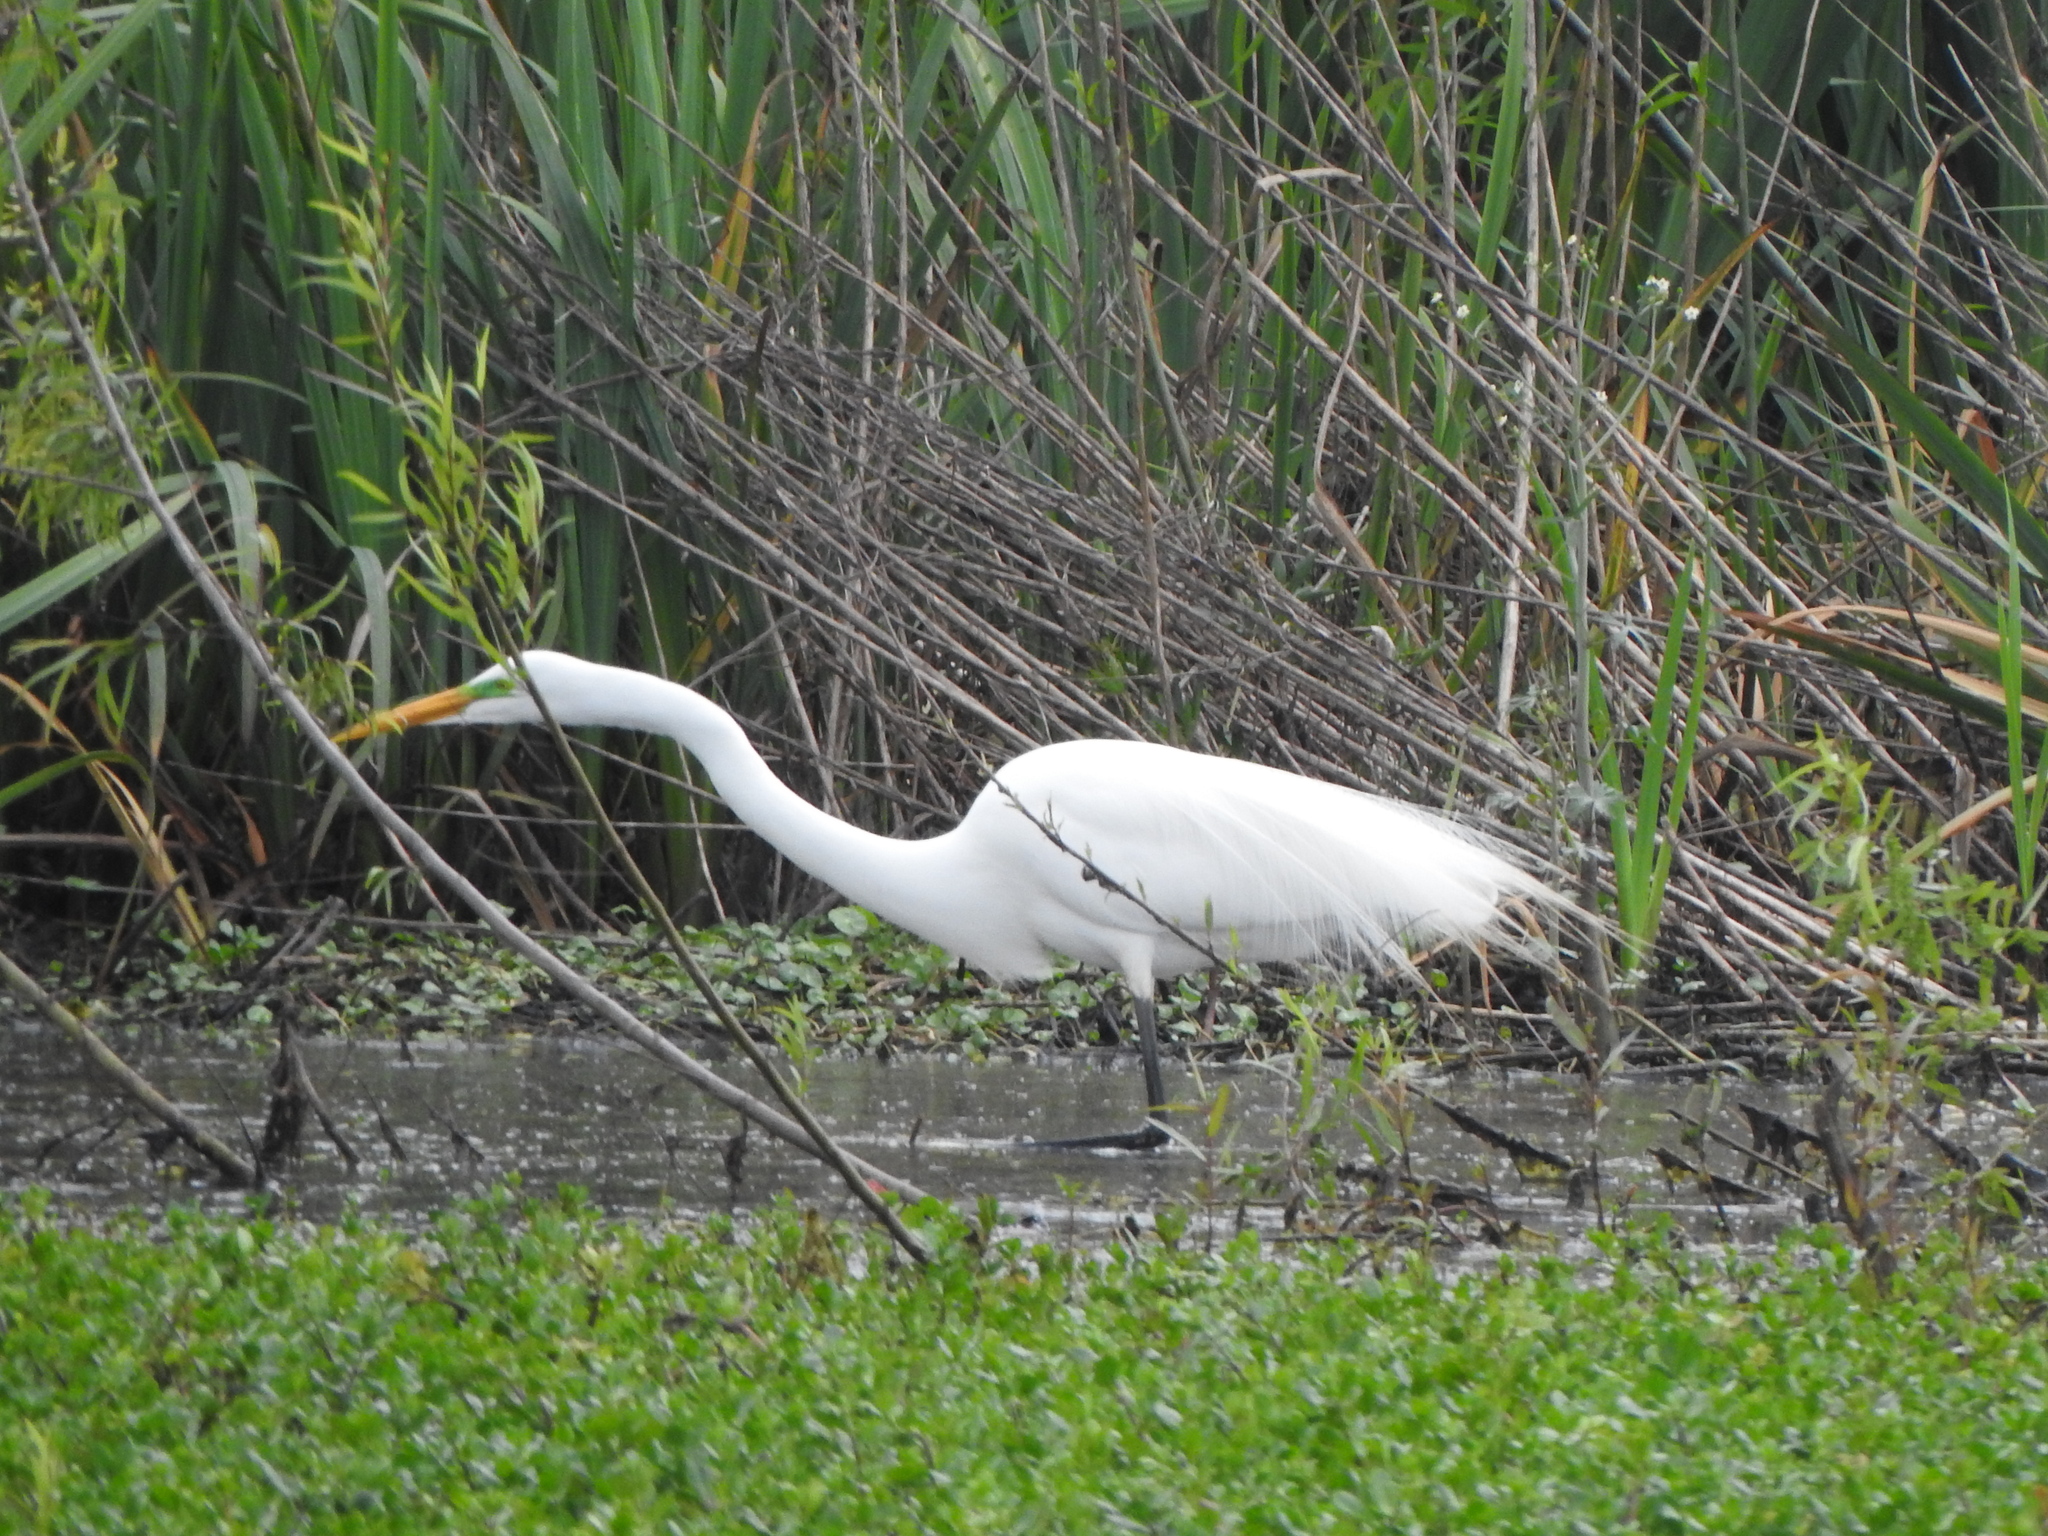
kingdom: Animalia
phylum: Chordata
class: Aves
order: Pelecaniformes
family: Ardeidae
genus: Ardea
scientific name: Ardea alba
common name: Great egret
